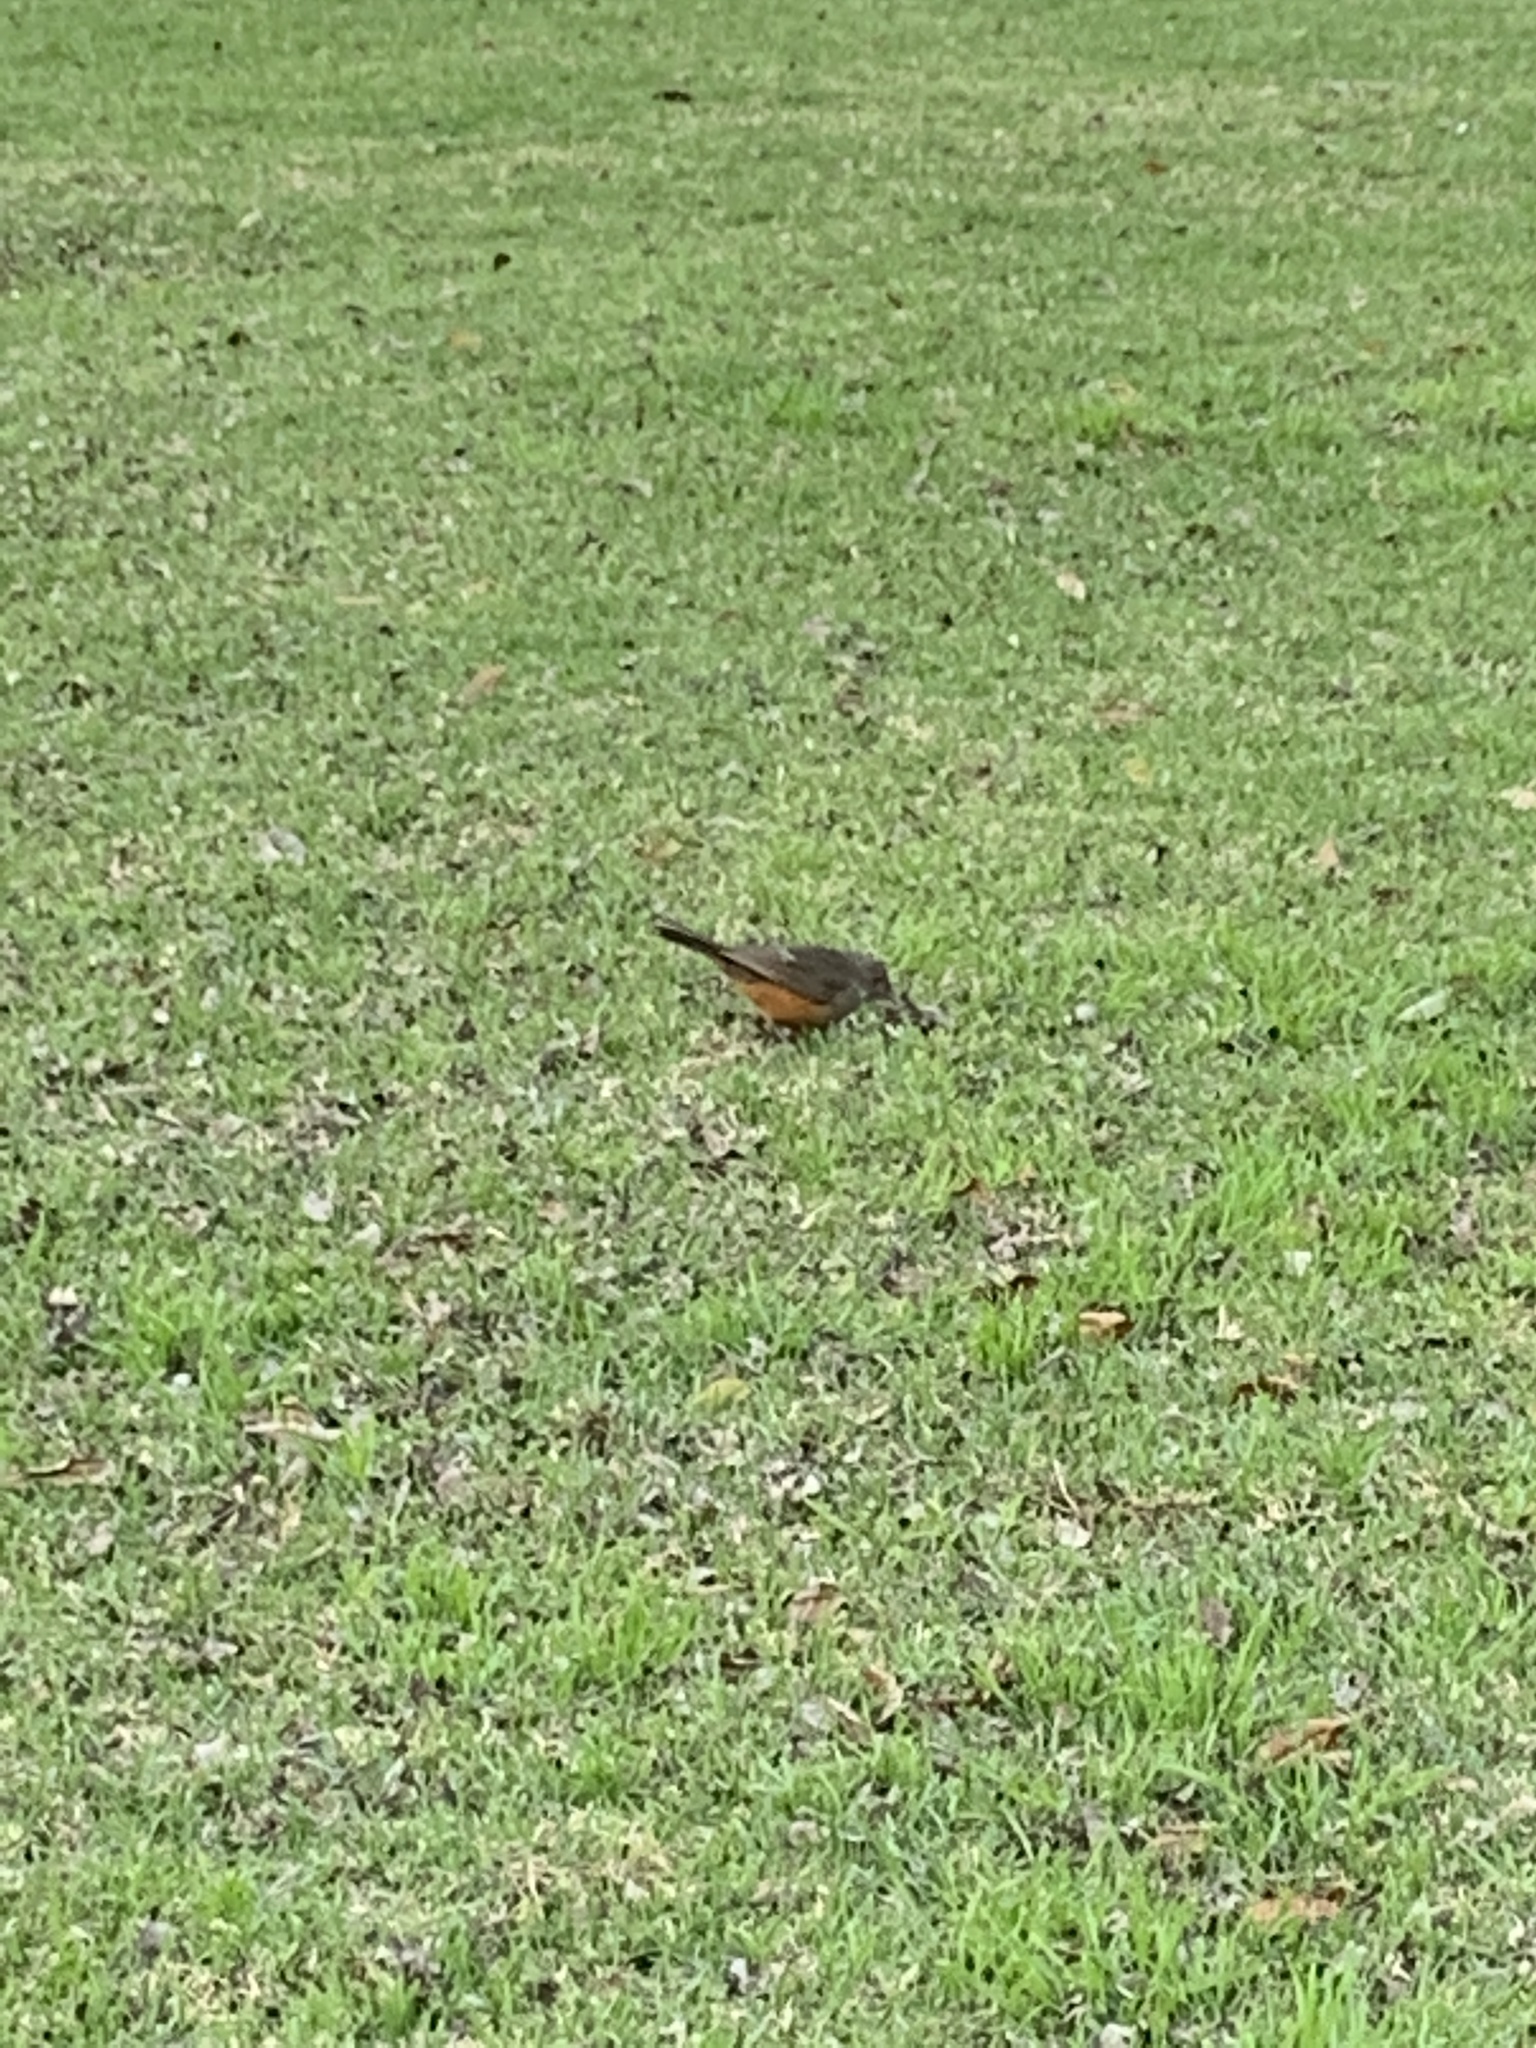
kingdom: Animalia
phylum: Chordata
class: Aves
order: Passeriformes
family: Turdidae
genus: Turdus
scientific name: Turdus rufiventris
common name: Rufous-bellied thrush
